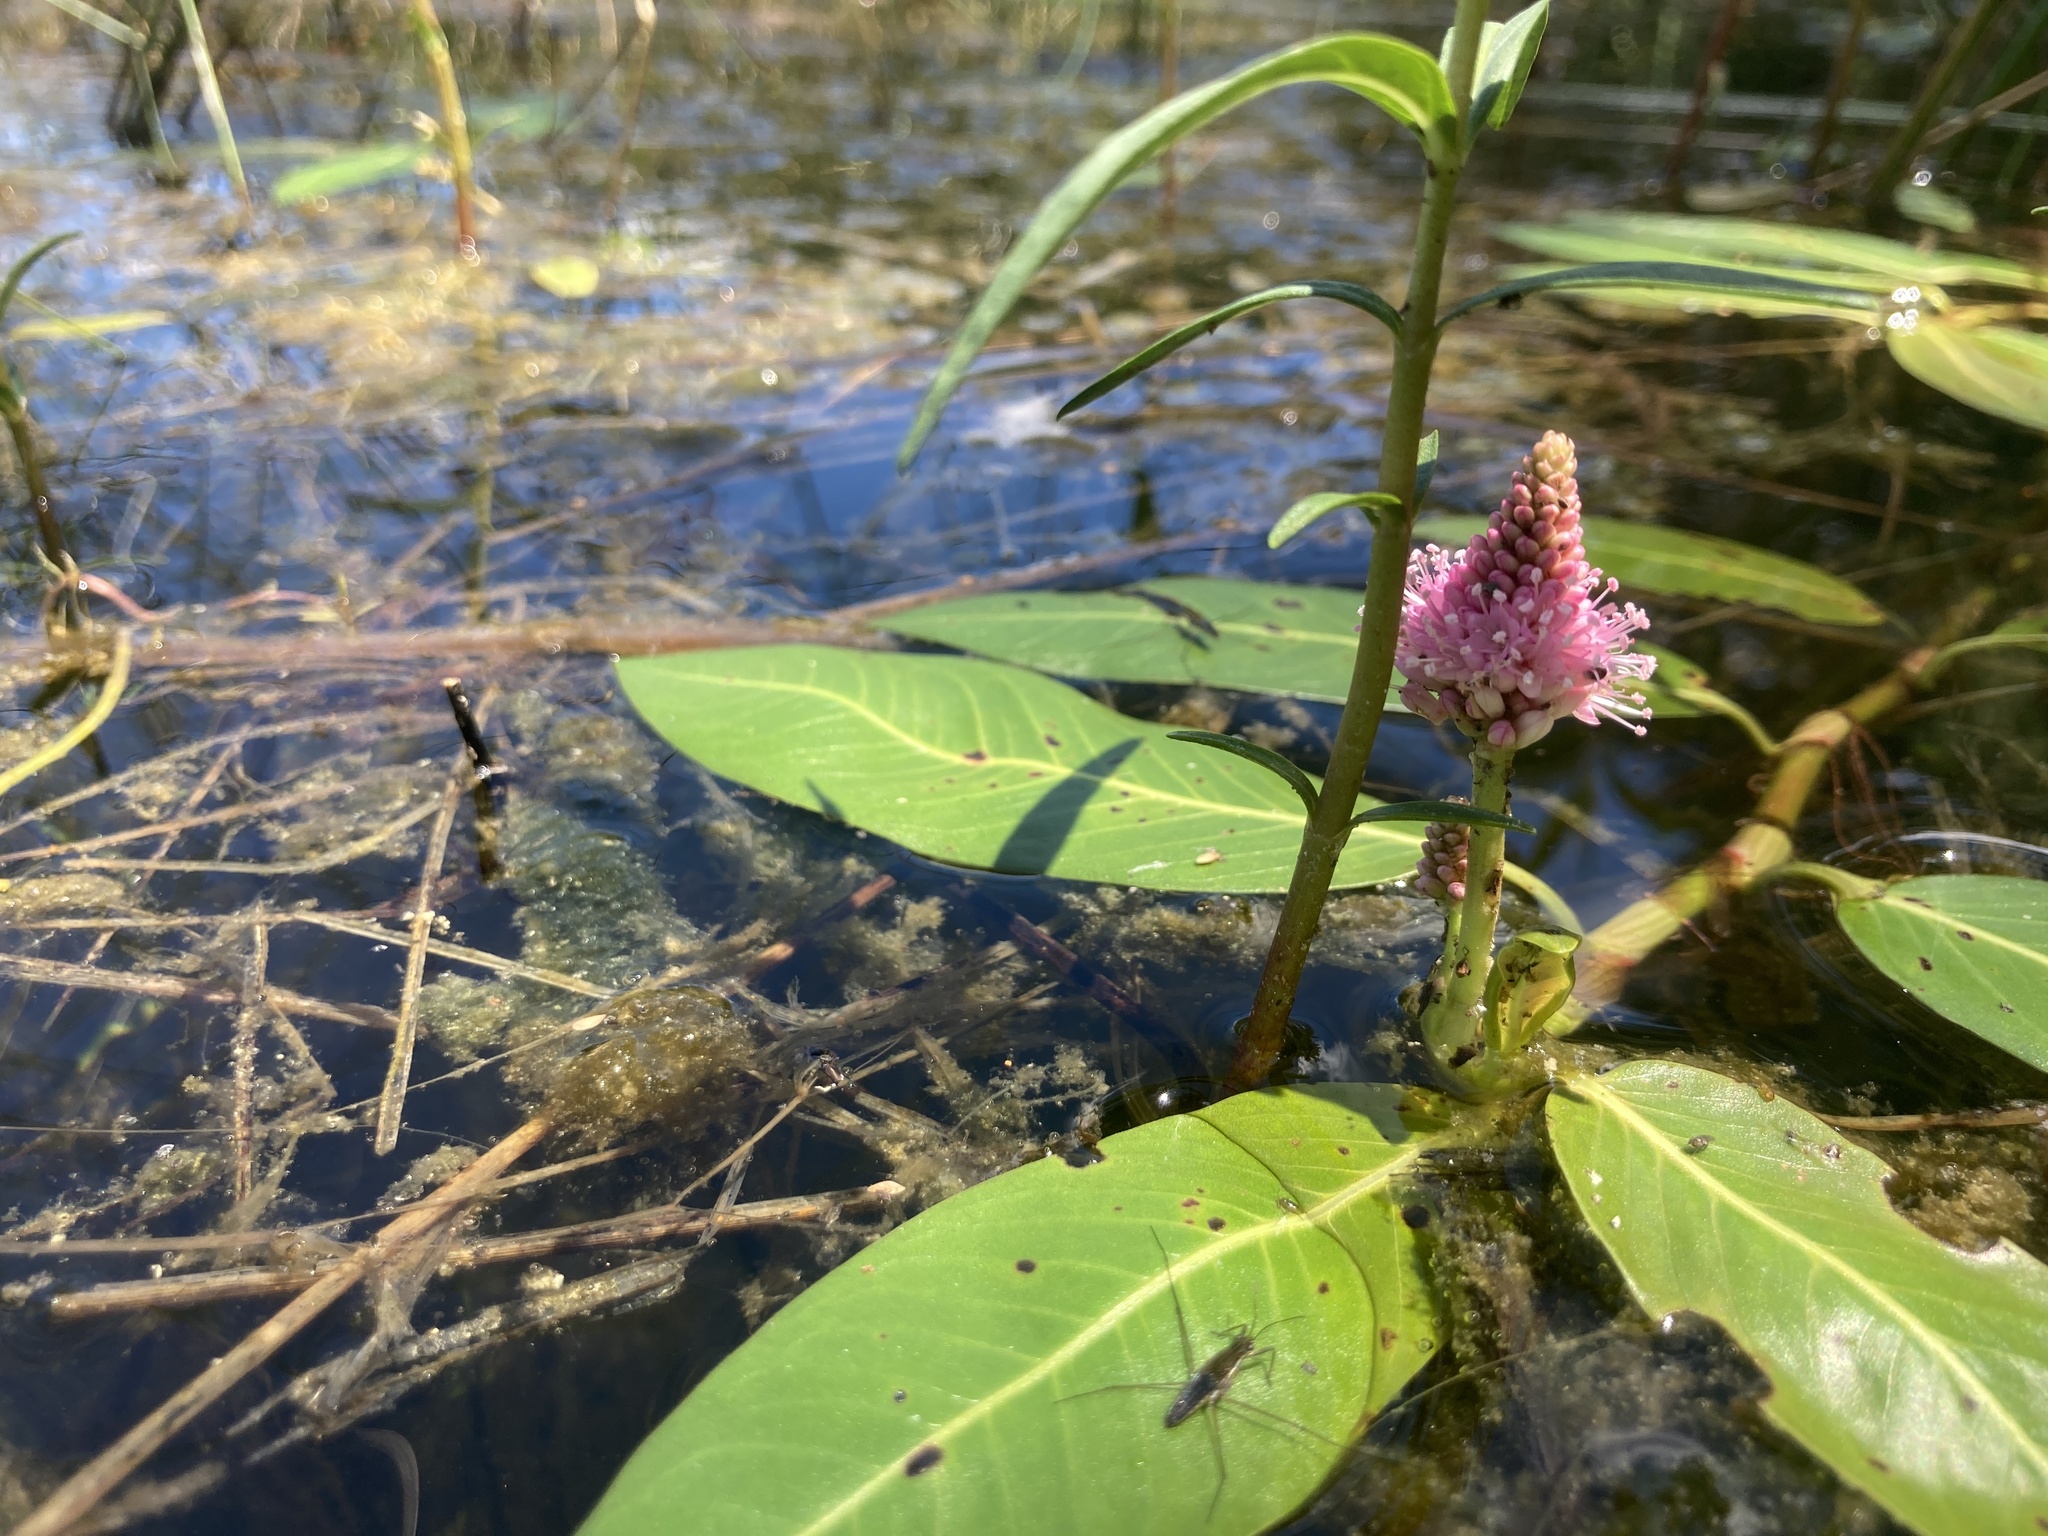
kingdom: Plantae
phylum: Tracheophyta
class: Magnoliopsida
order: Caryophyllales
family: Polygonaceae
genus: Persicaria
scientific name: Persicaria amphibia
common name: Amphibious bistort
